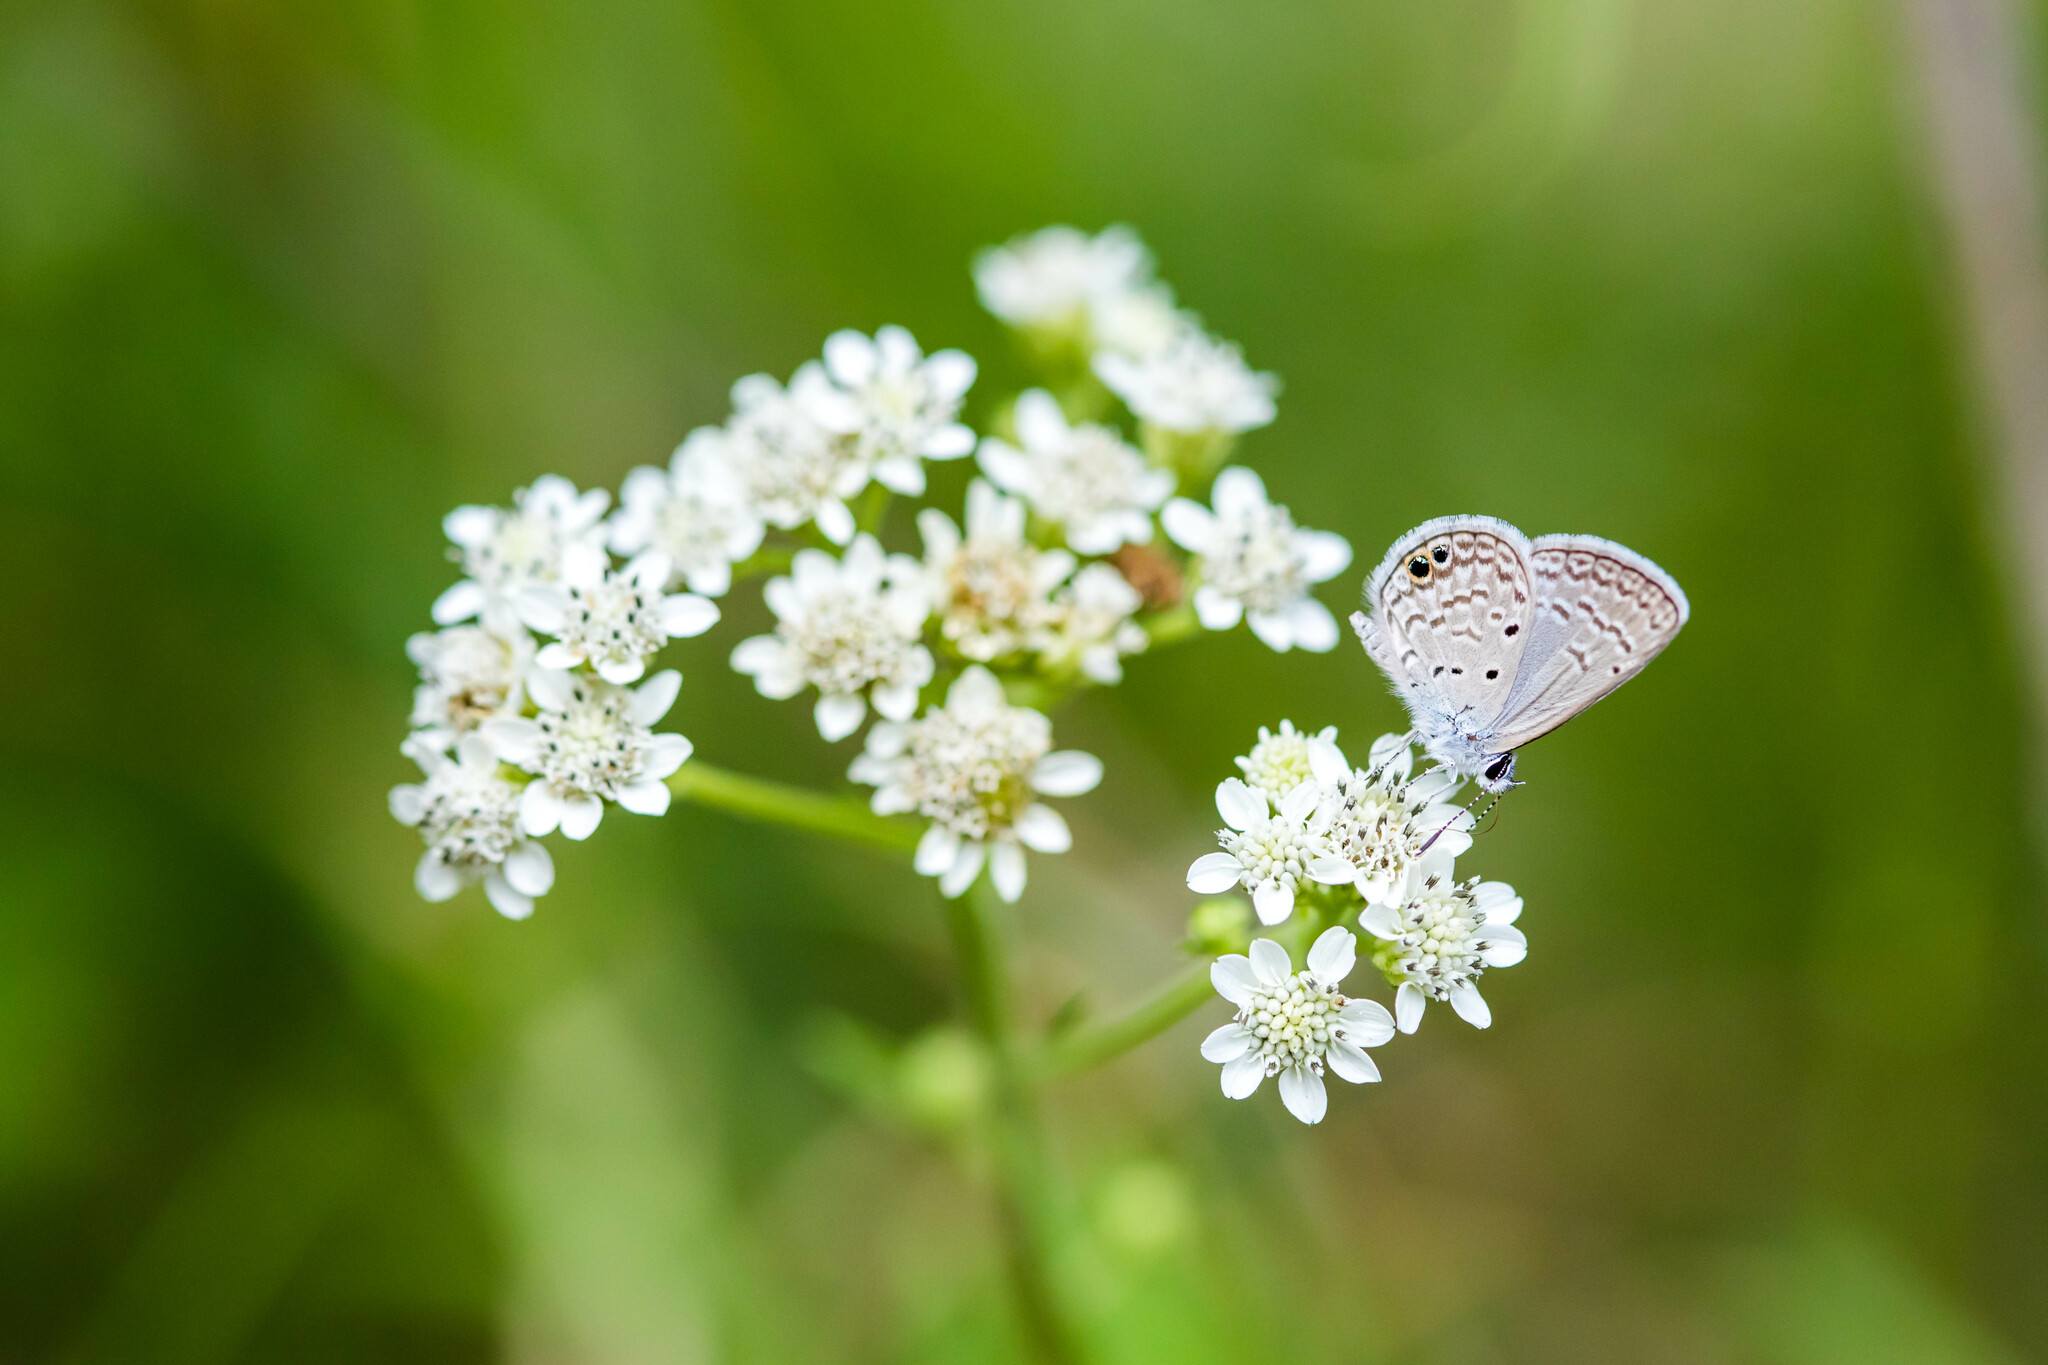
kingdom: Animalia
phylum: Arthropoda
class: Insecta
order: Lepidoptera
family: Lycaenidae
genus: Hemiargus
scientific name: Hemiargus ceraunus
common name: Ceraunus blue
